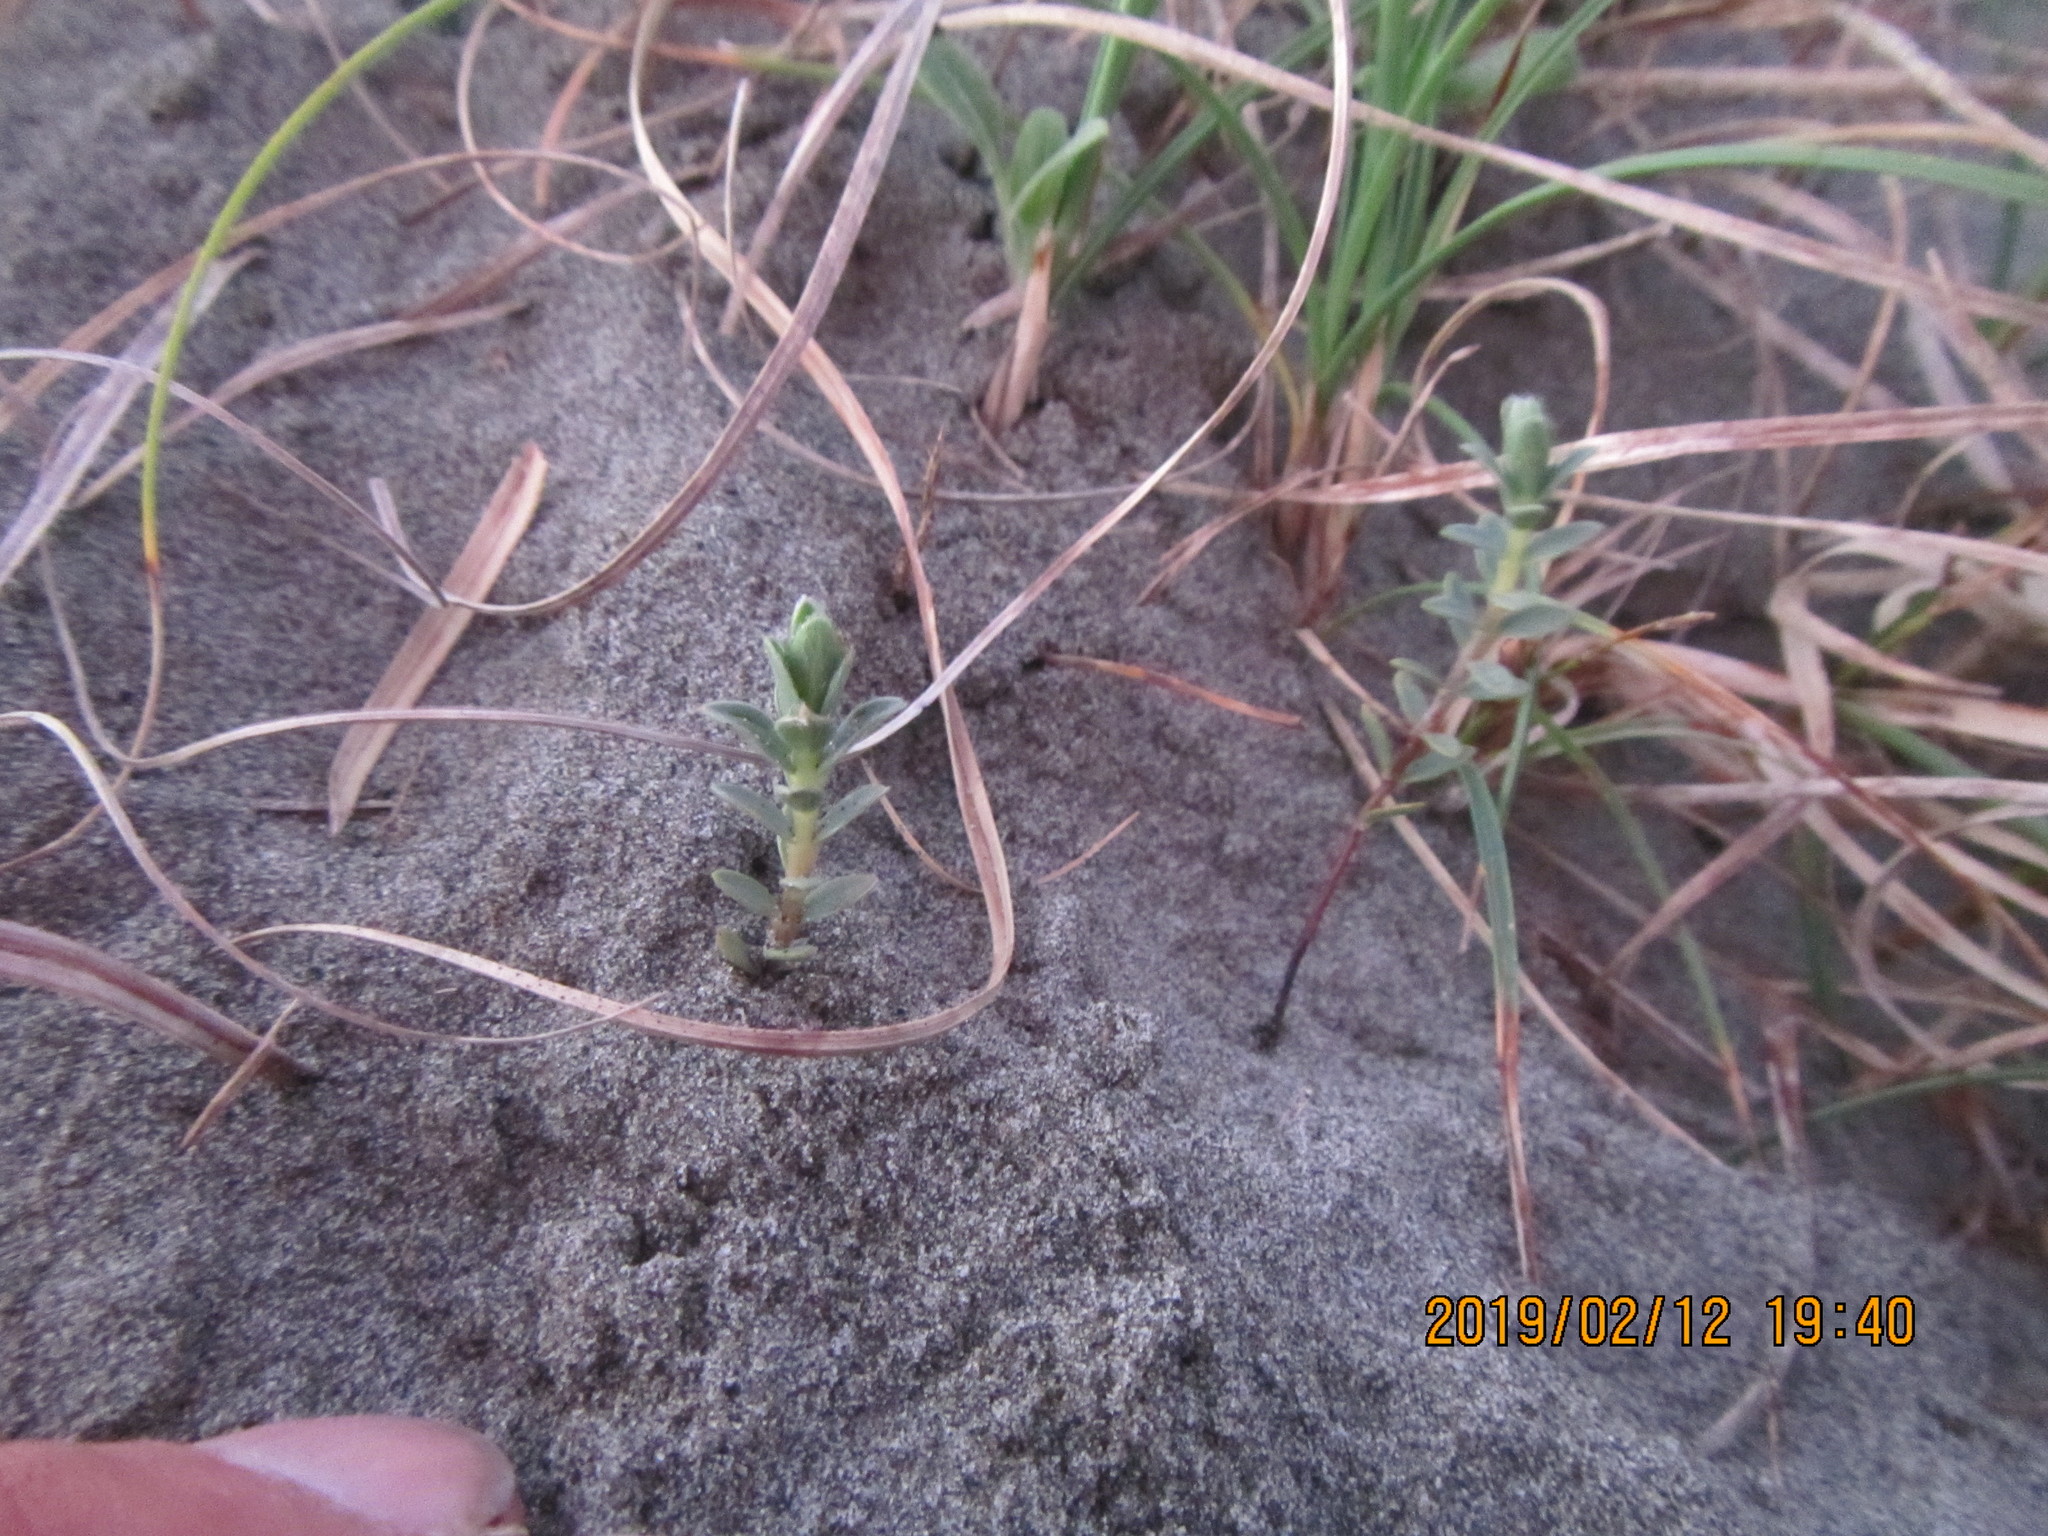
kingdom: Plantae
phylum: Tracheophyta
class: Magnoliopsida
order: Malvales
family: Thymelaeaceae
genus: Pimelea
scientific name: Pimelea villosa
